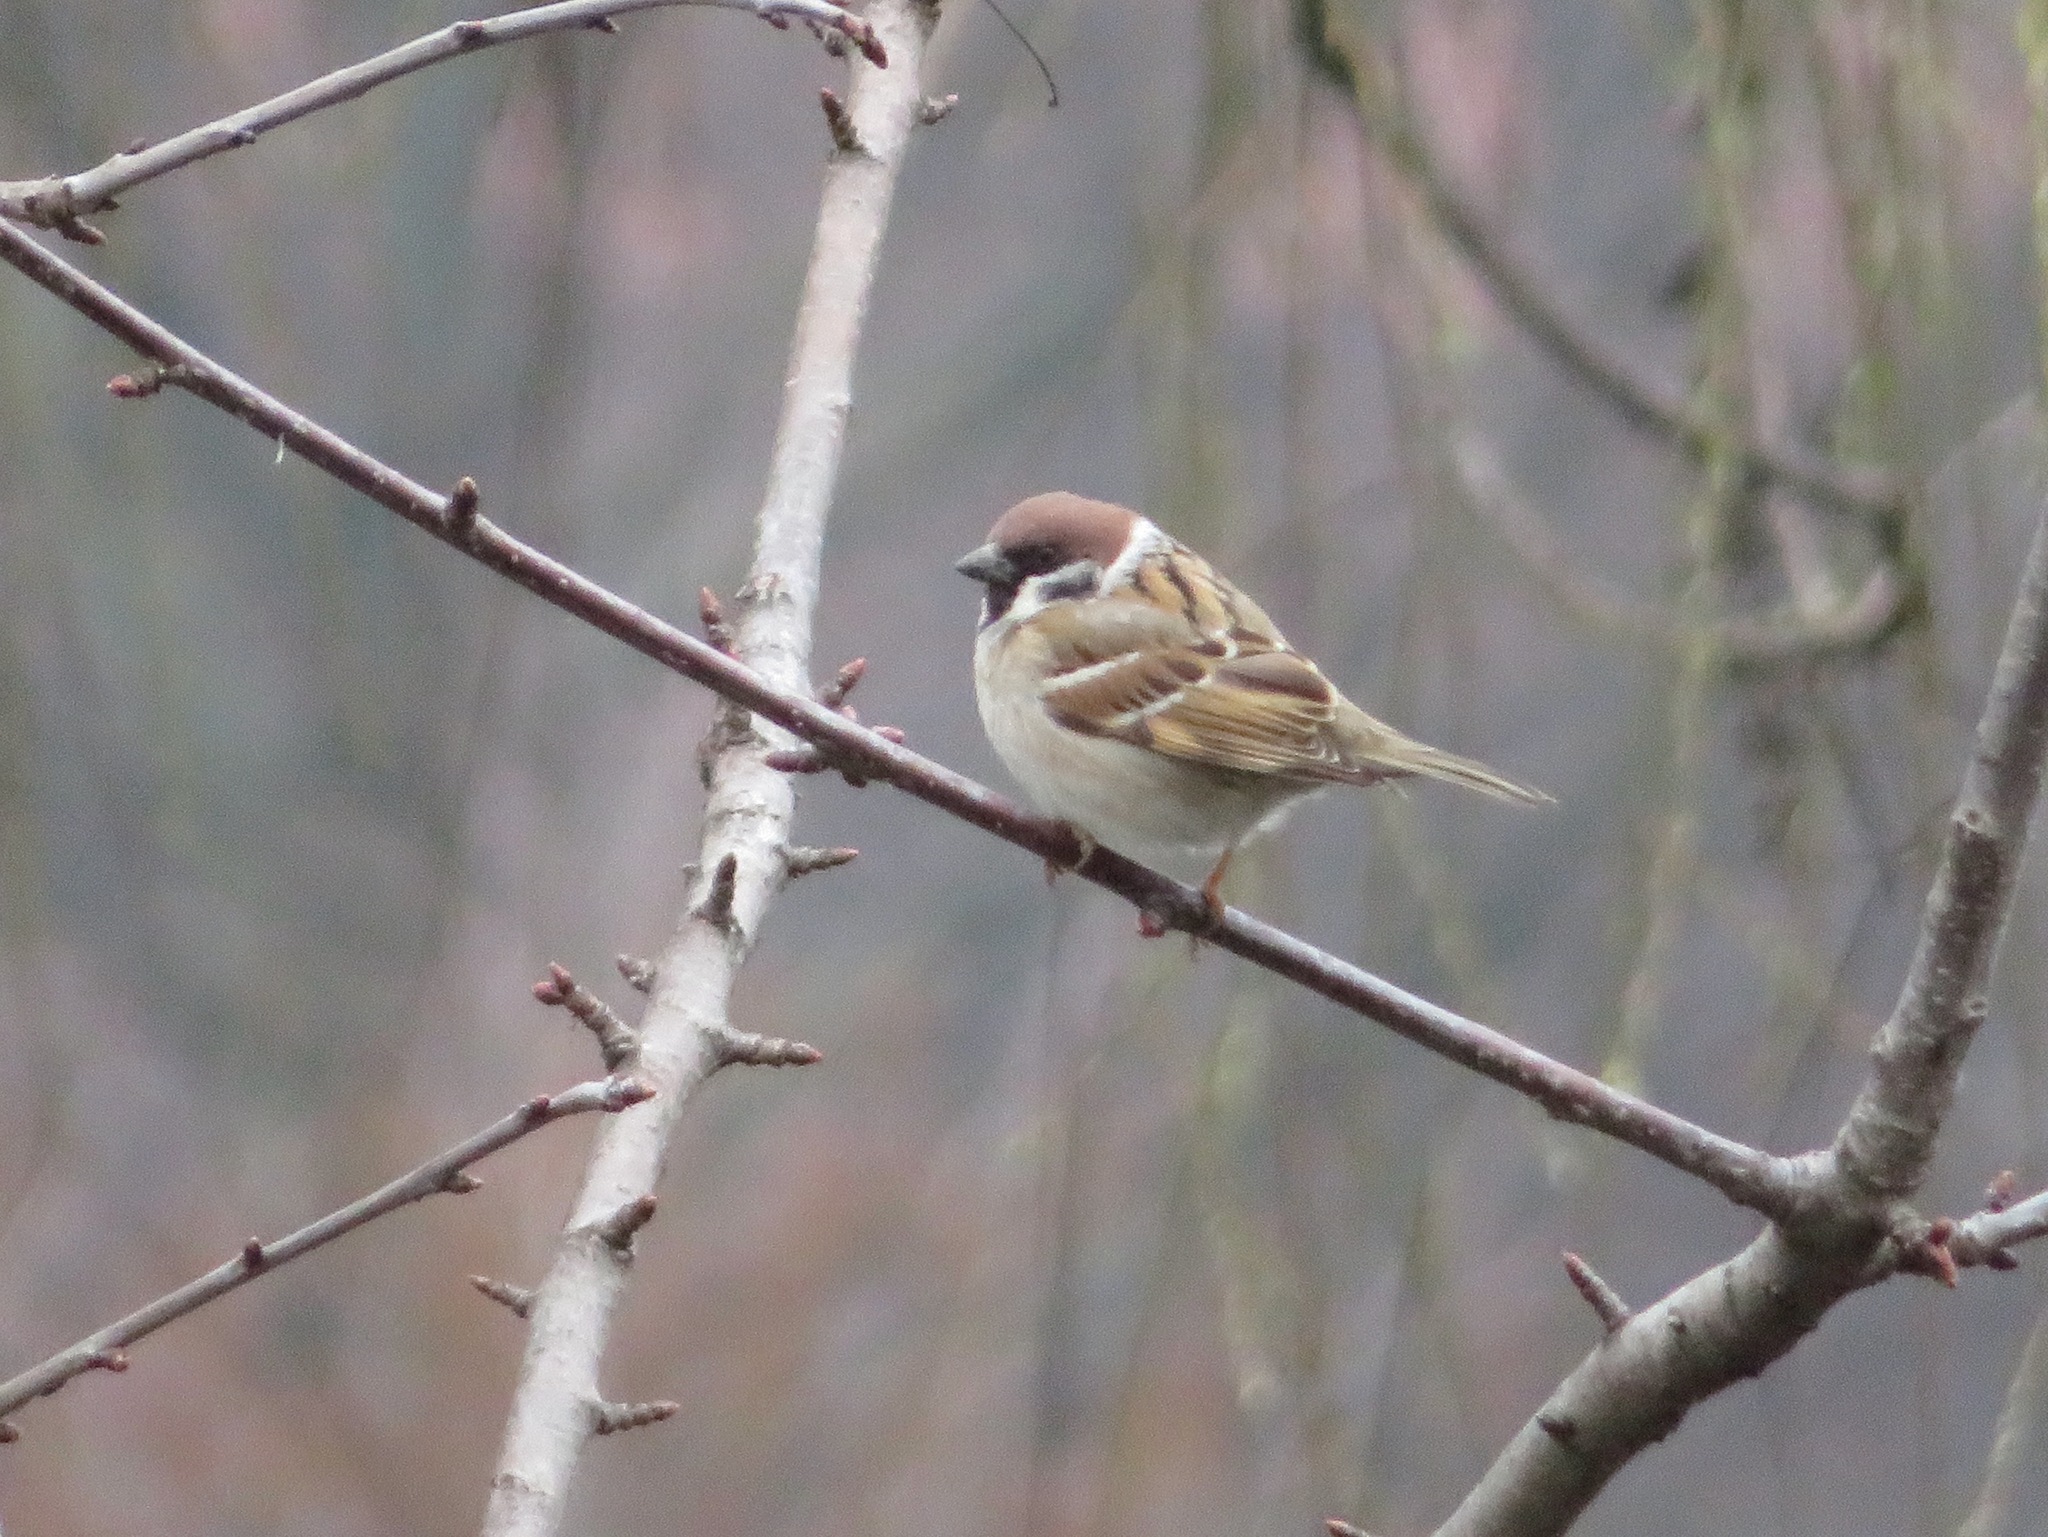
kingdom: Animalia
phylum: Chordata
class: Aves
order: Passeriformes
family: Passeridae
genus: Passer
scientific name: Passer montanus
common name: Eurasian tree sparrow
